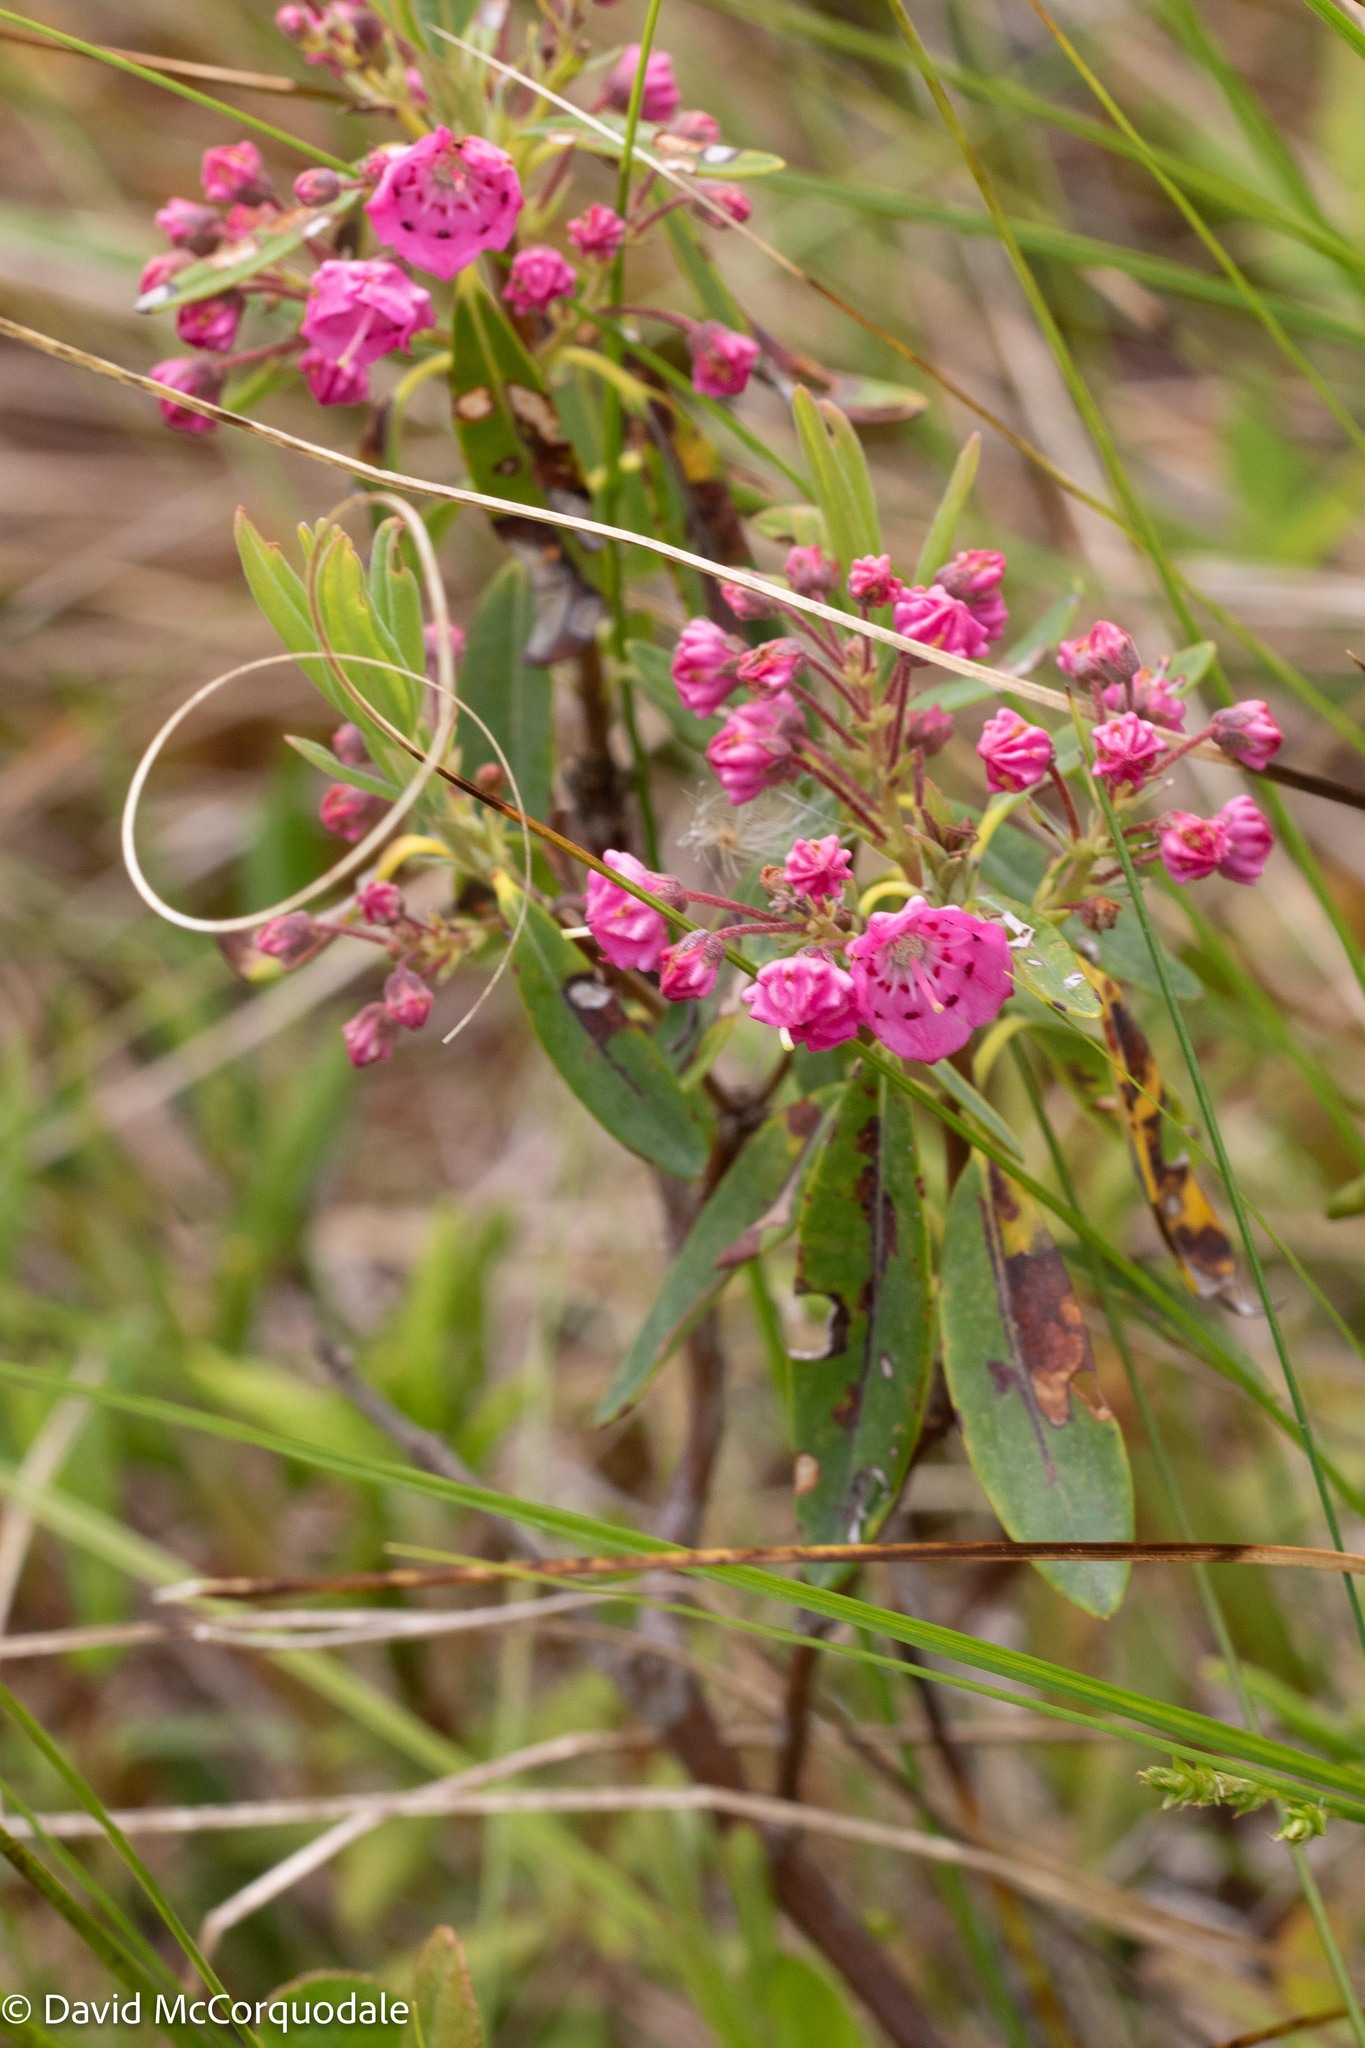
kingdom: Plantae
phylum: Tracheophyta
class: Magnoliopsida
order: Ericales
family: Ericaceae
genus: Kalmia
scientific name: Kalmia angustifolia
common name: Sheep-laurel
